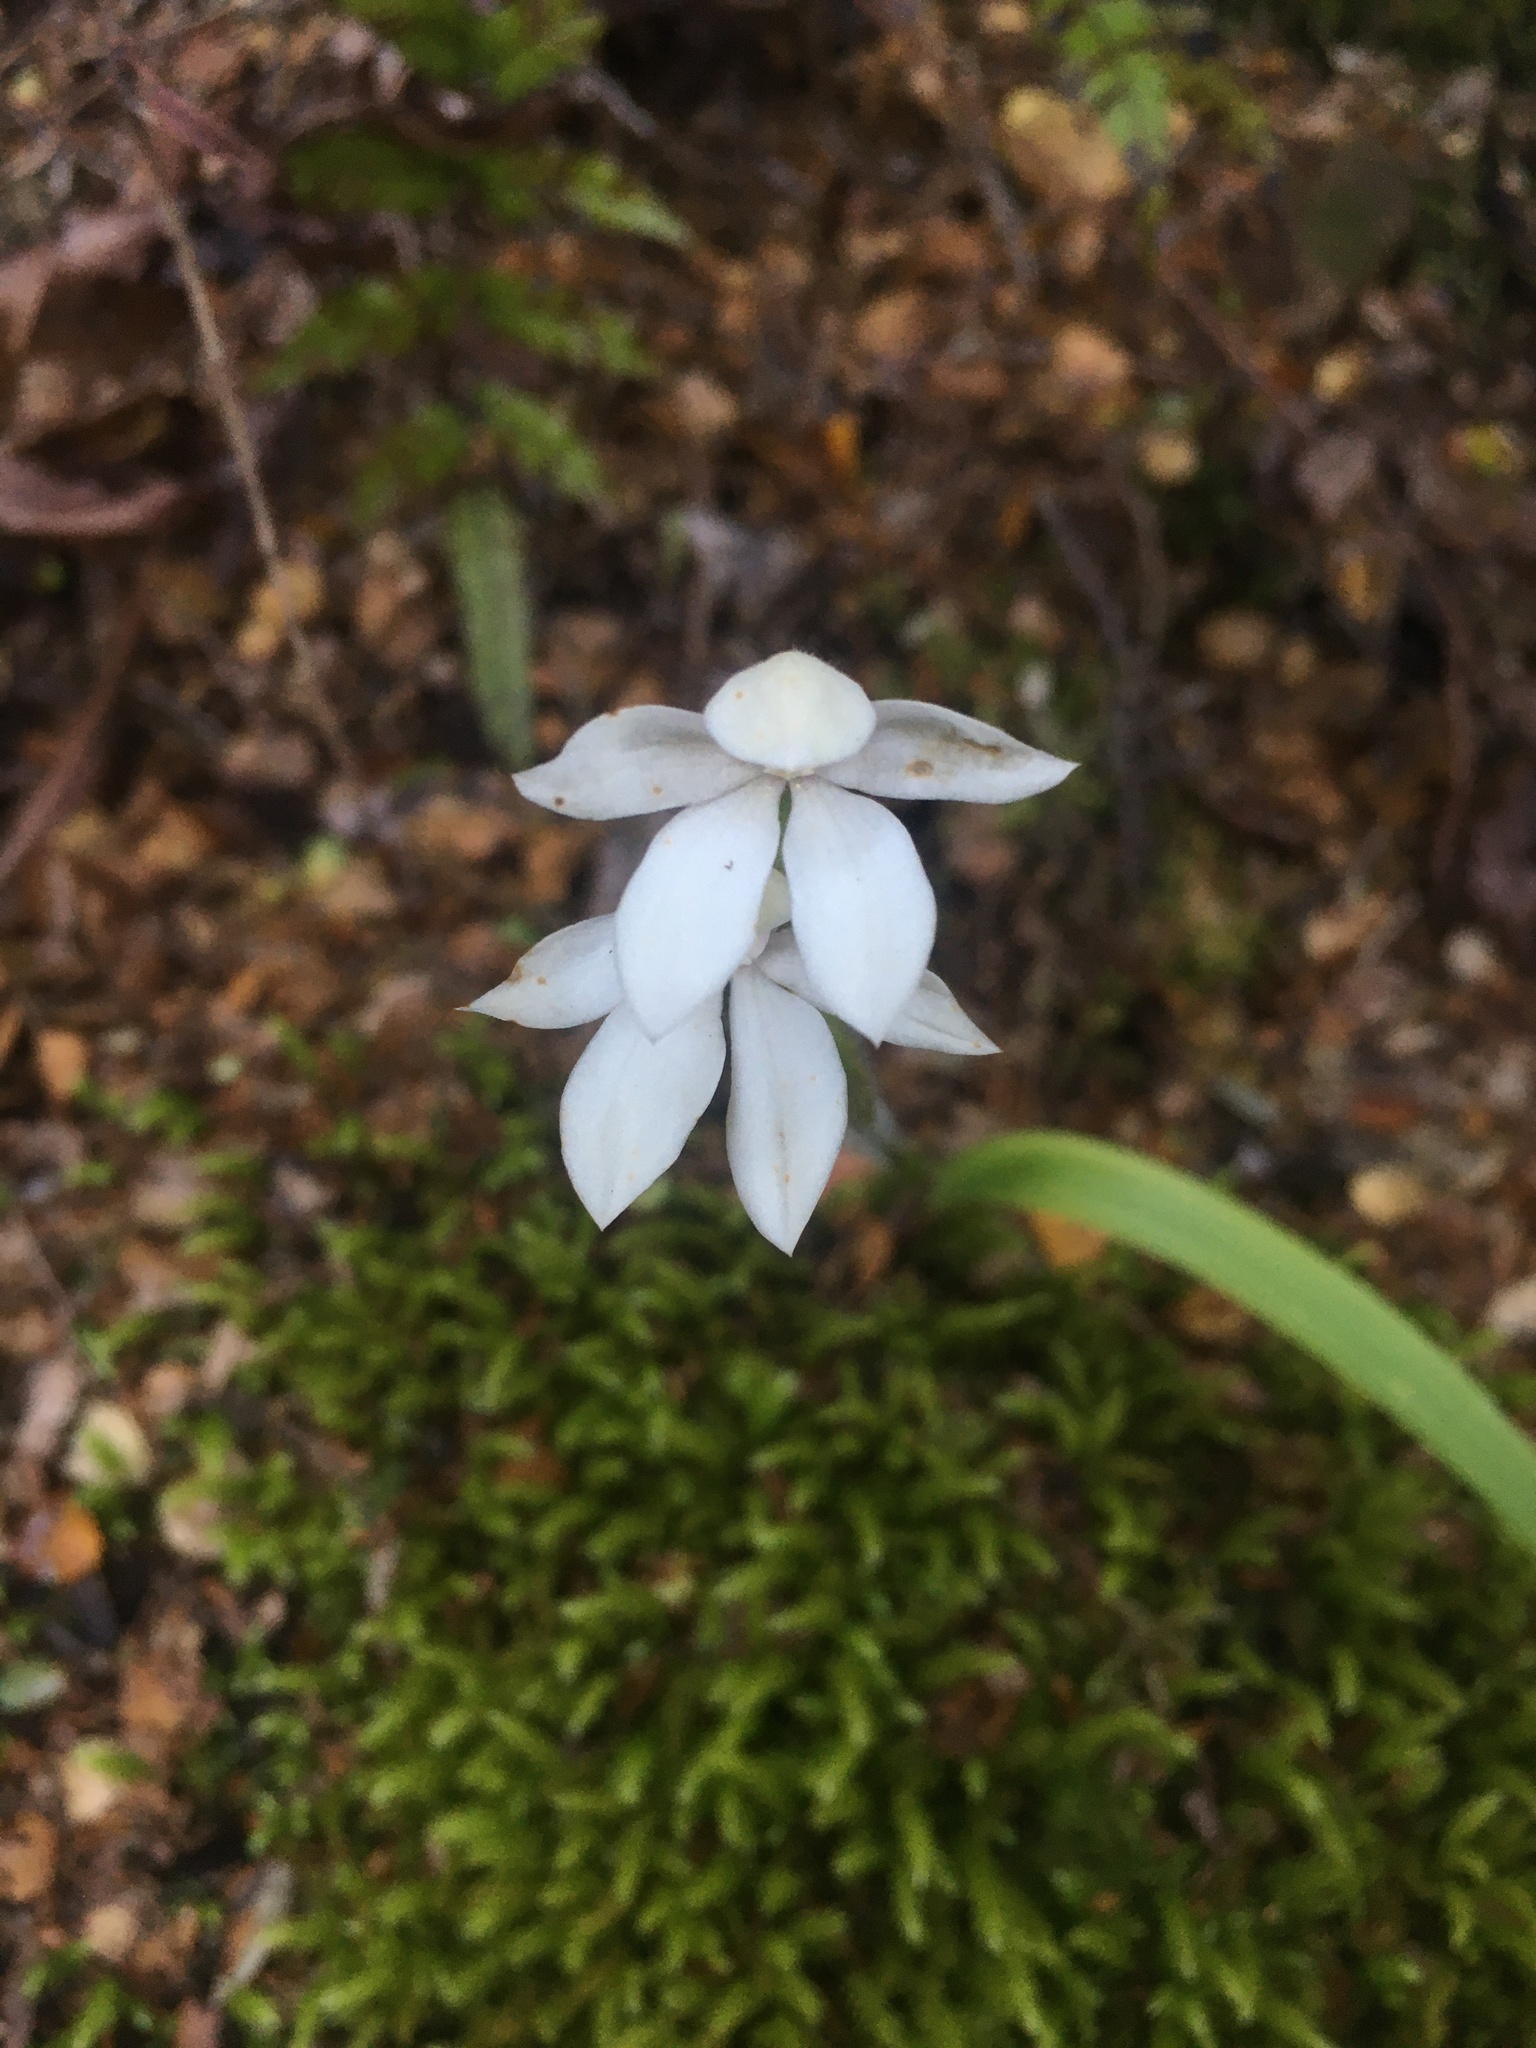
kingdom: Plantae
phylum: Tracheophyta
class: Liliopsida
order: Asparagales
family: Orchidaceae
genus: Caladenia
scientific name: Caladenia lyallii
